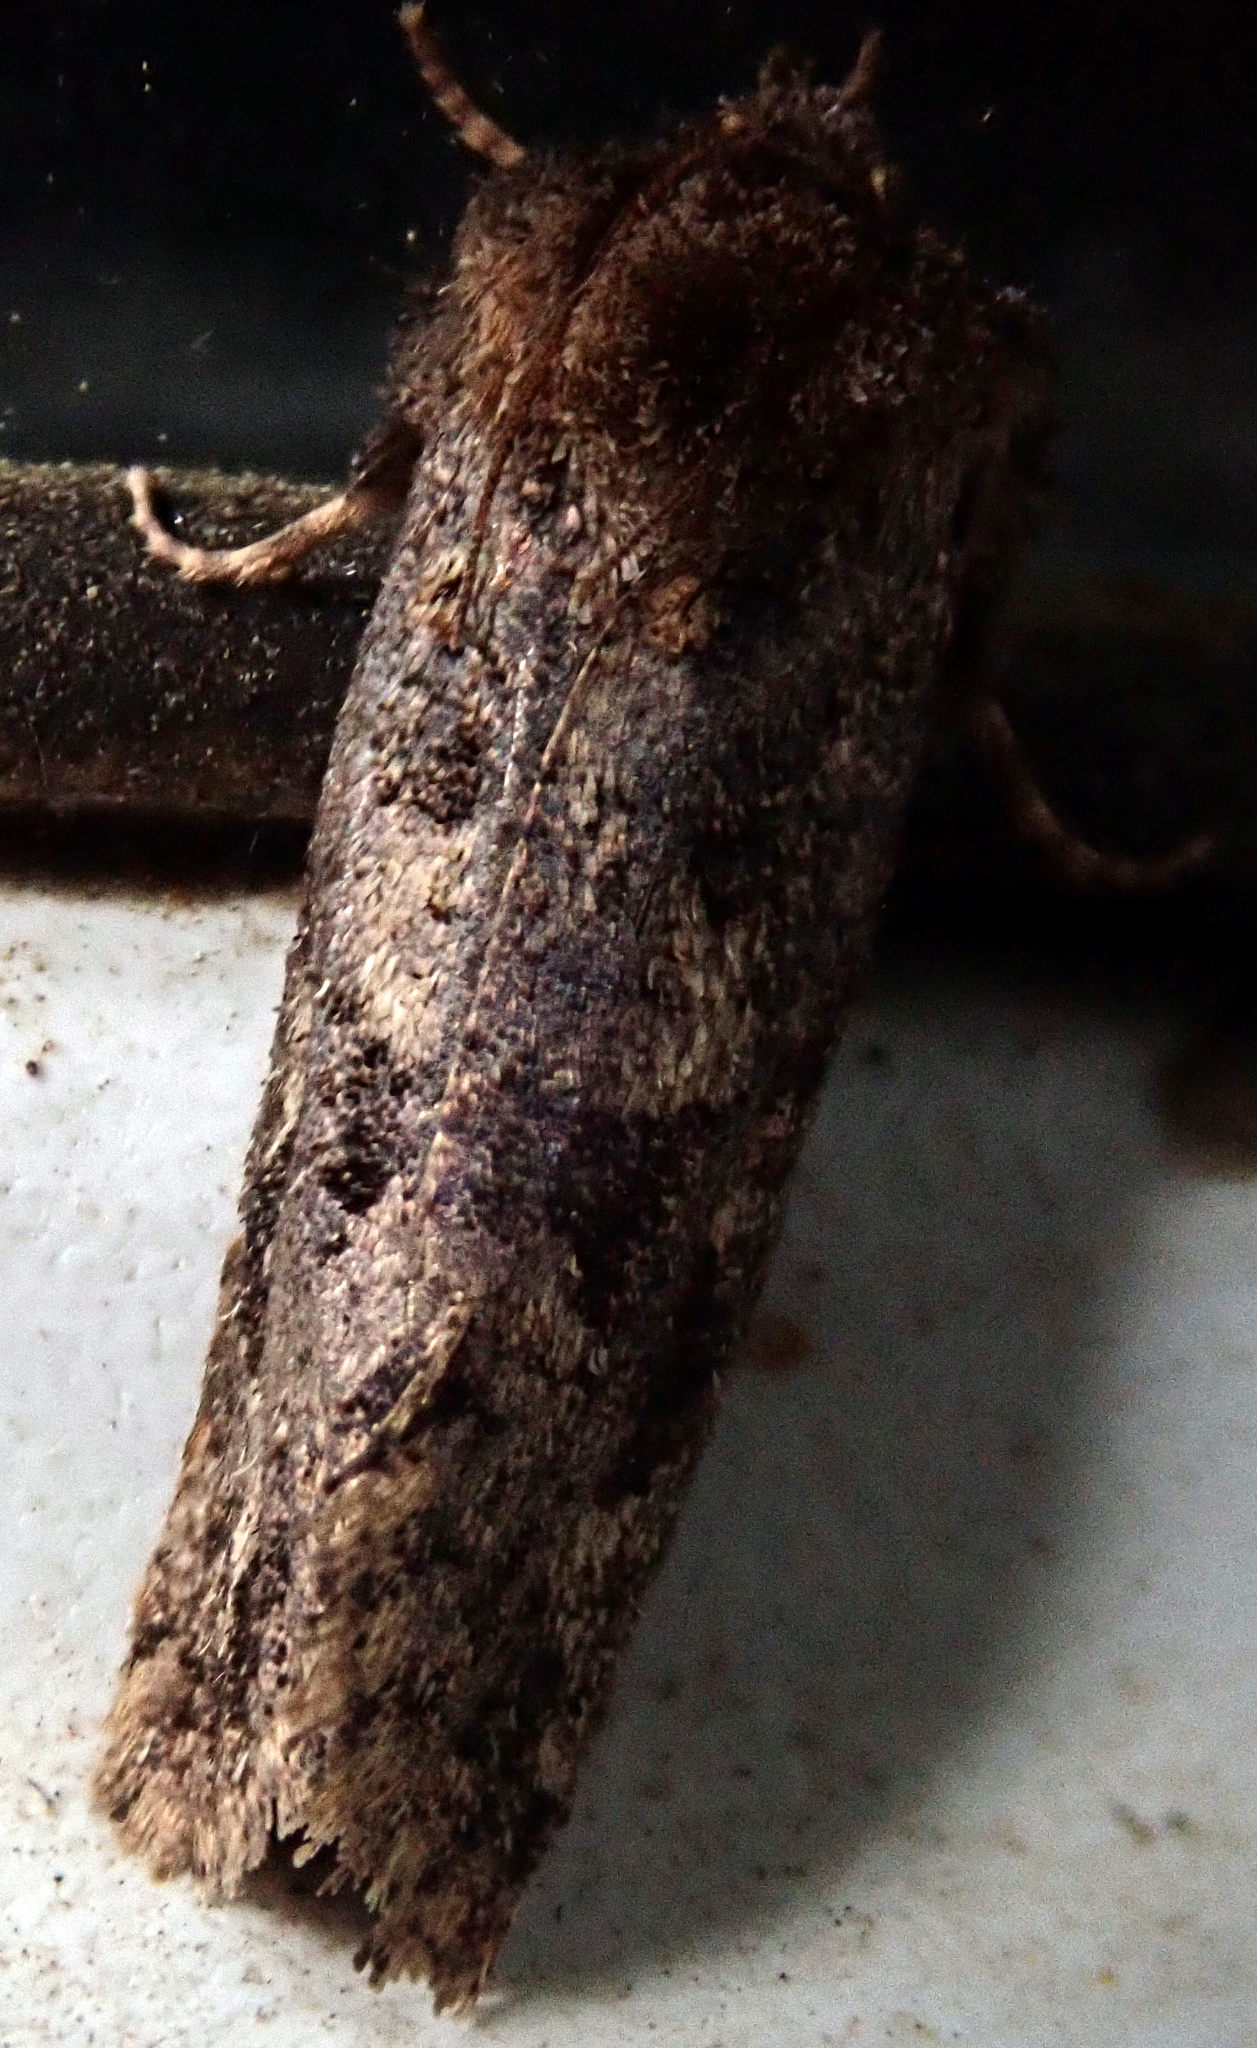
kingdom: Animalia
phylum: Arthropoda
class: Insecta
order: Lepidoptera
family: Tineidae
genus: Acrolophus
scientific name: Acrolophus arcanella
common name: Arcane grass tubeworm moth
